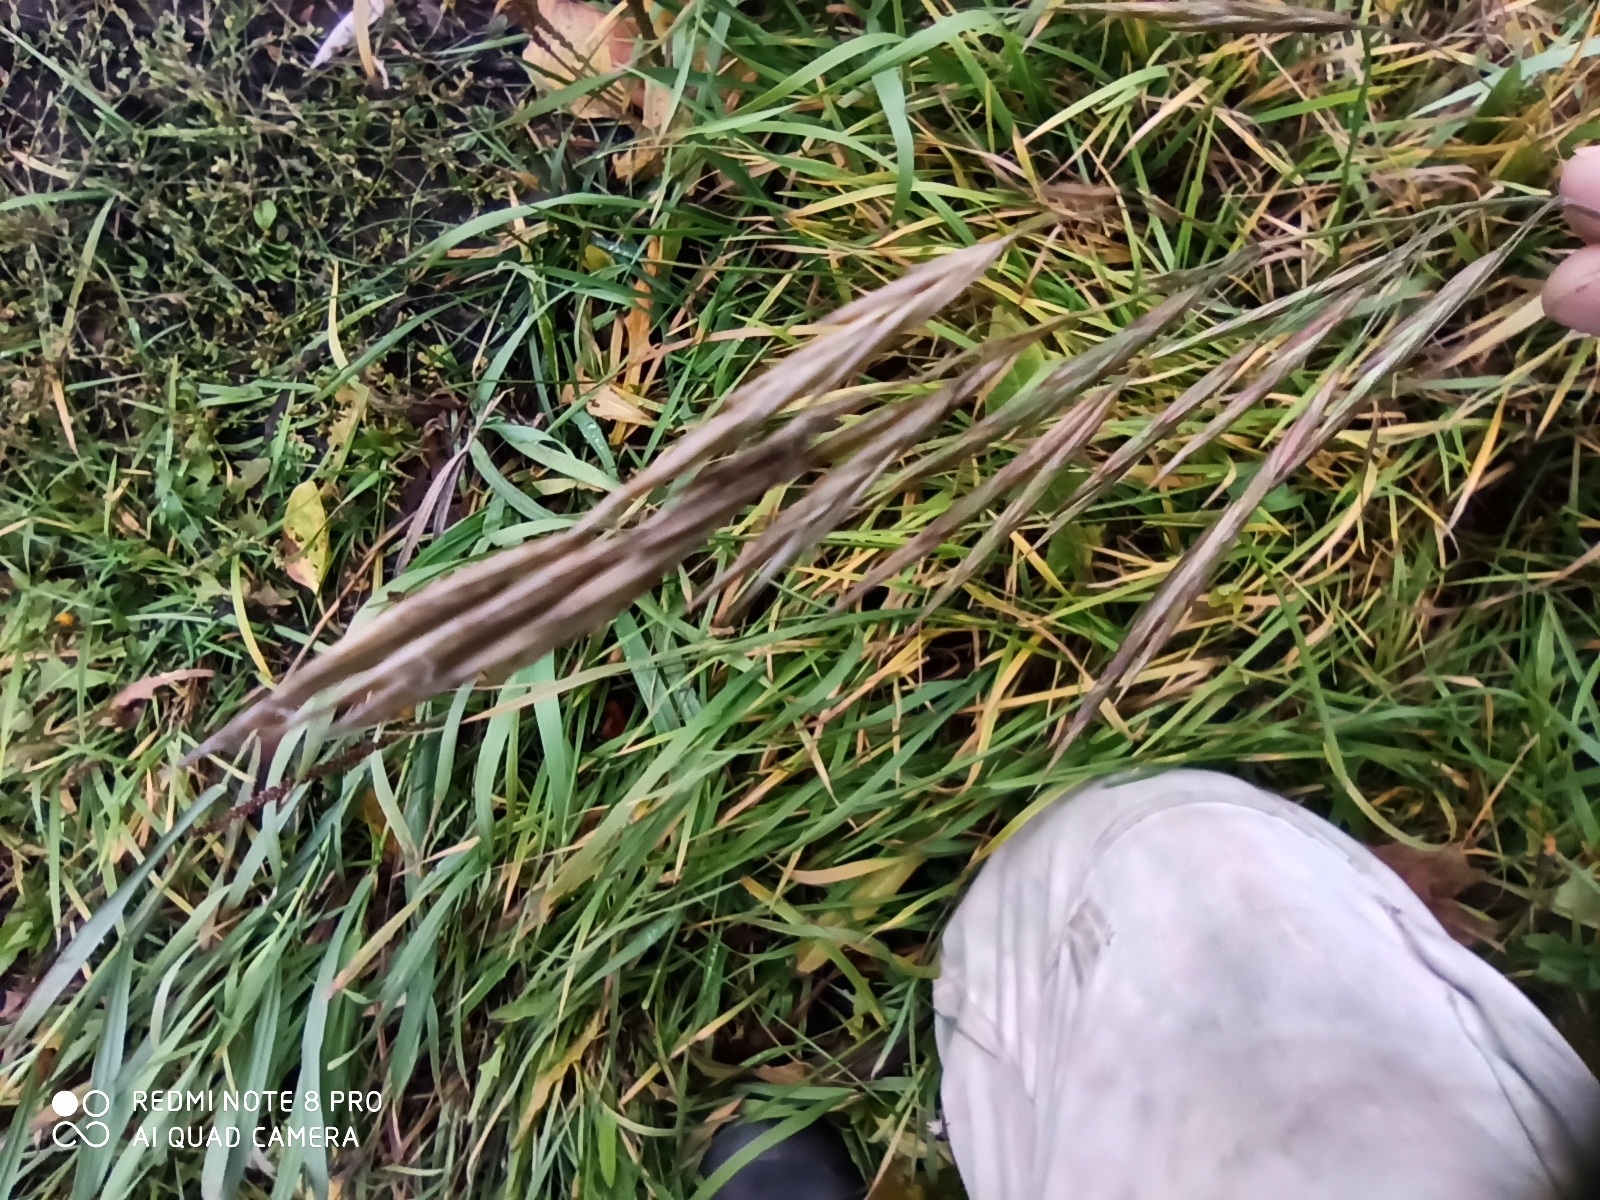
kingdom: Plantae
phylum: Tracheophyta
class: Liliopsida
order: Poales
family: Poaceae
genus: Bromus
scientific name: Bromus inermis
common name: Smooth brome
